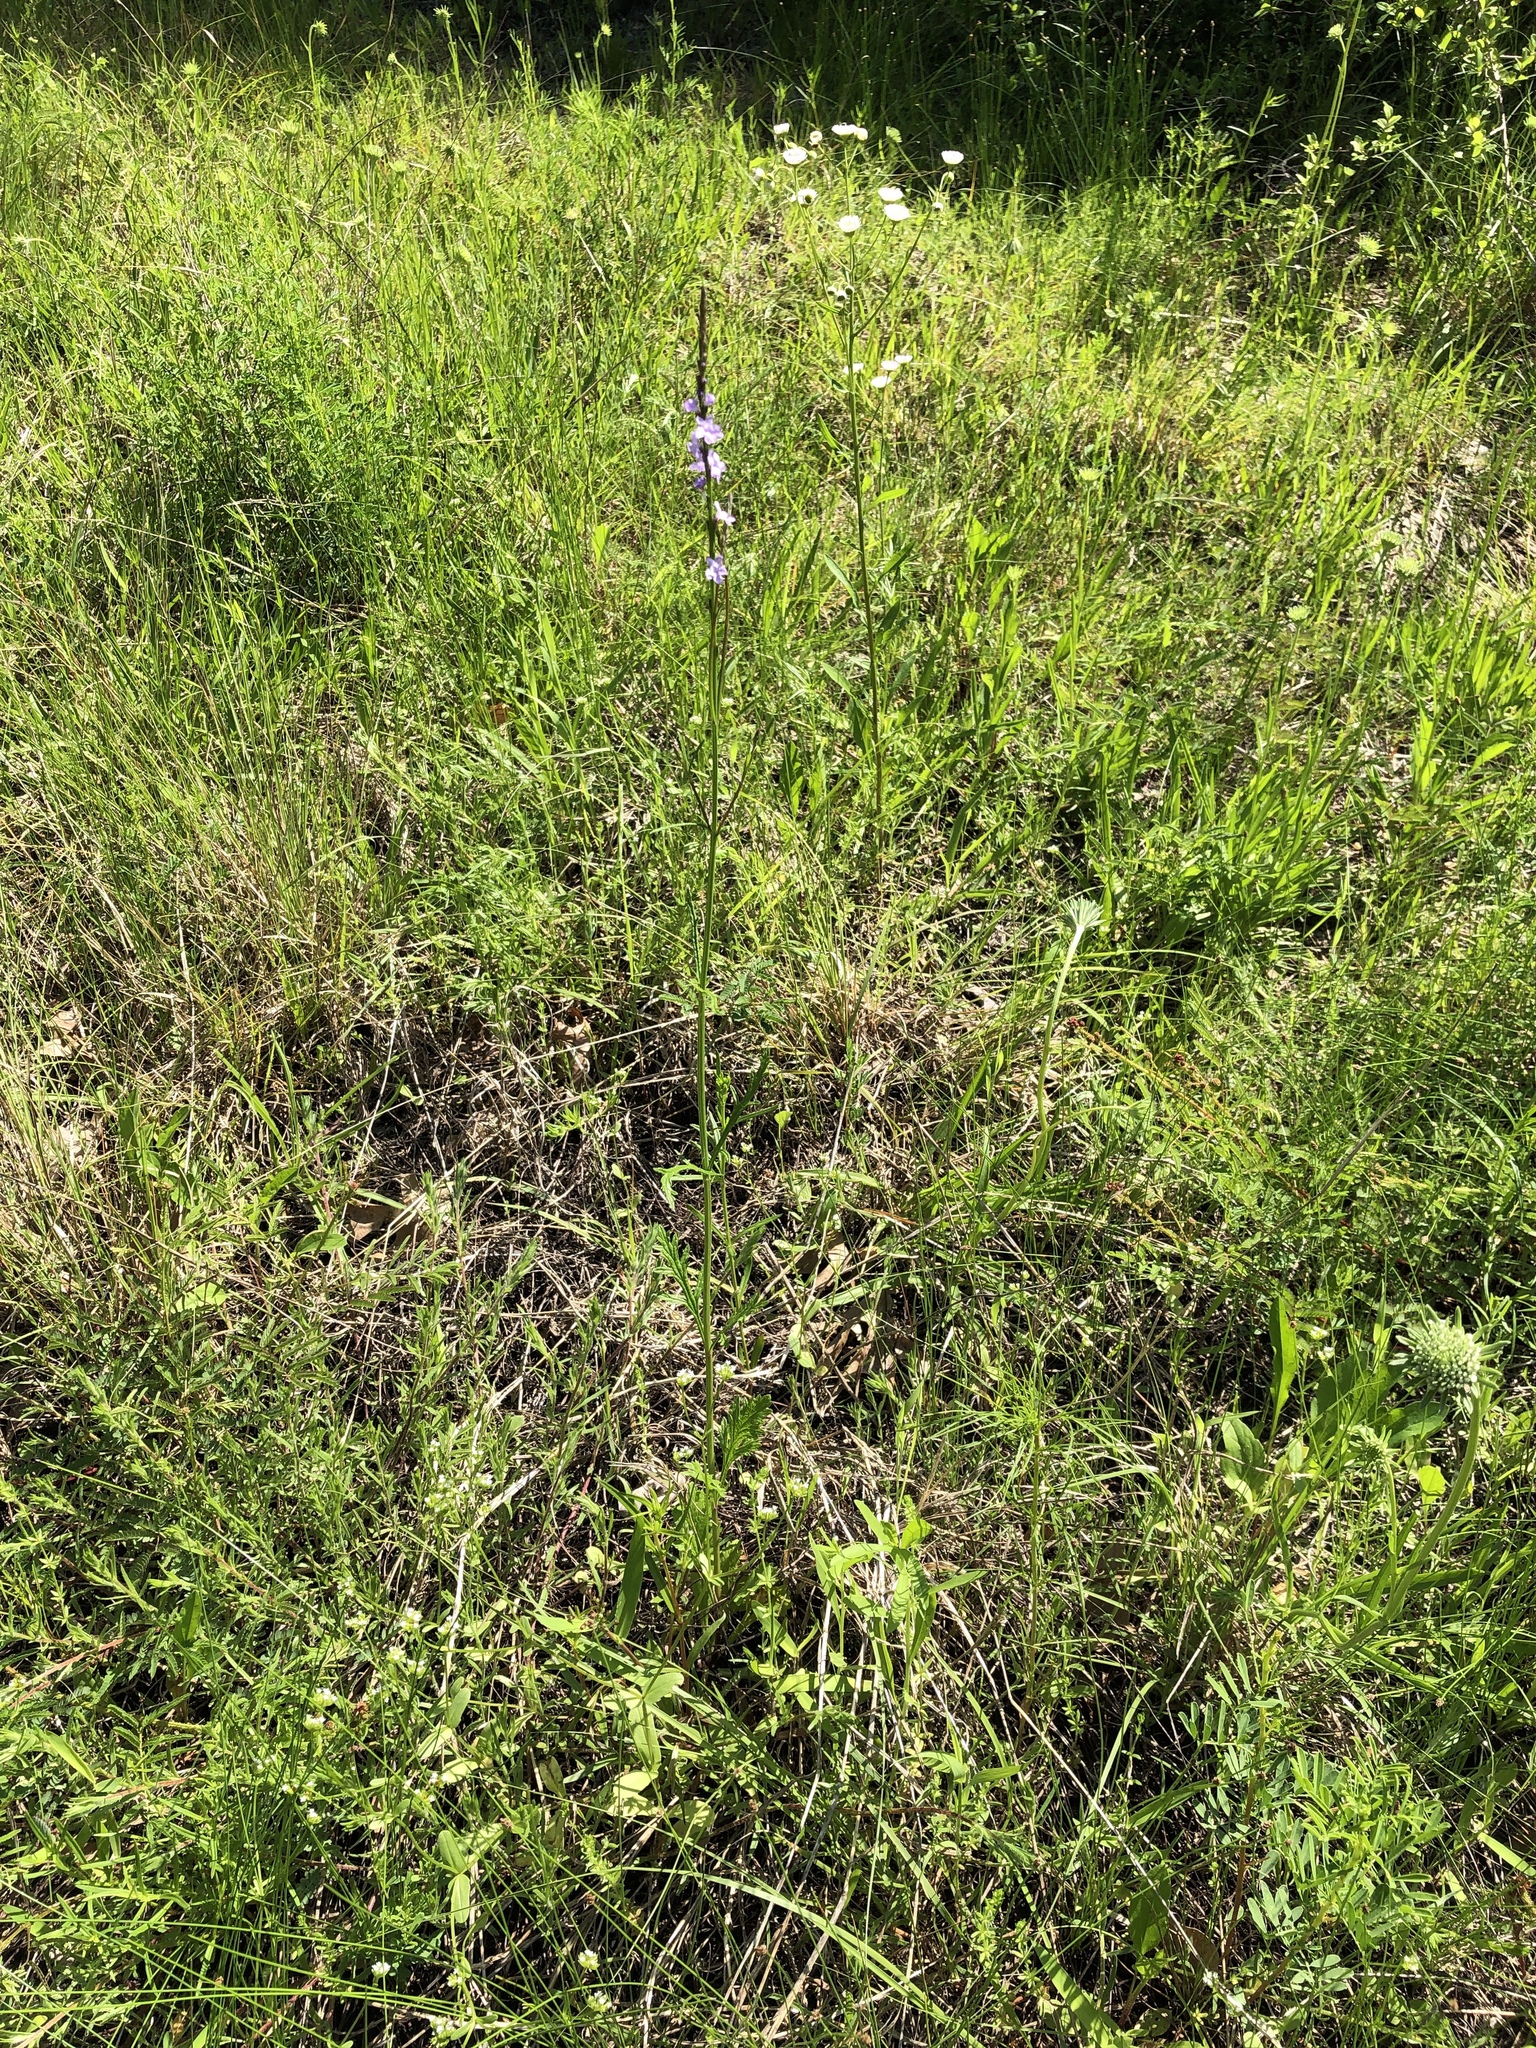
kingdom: Plantae
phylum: Tracheophyta
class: Magnoliopsida
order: Lamiales
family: Verbenaceae
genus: Verbena
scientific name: Verbena halei
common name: Texas vervain
